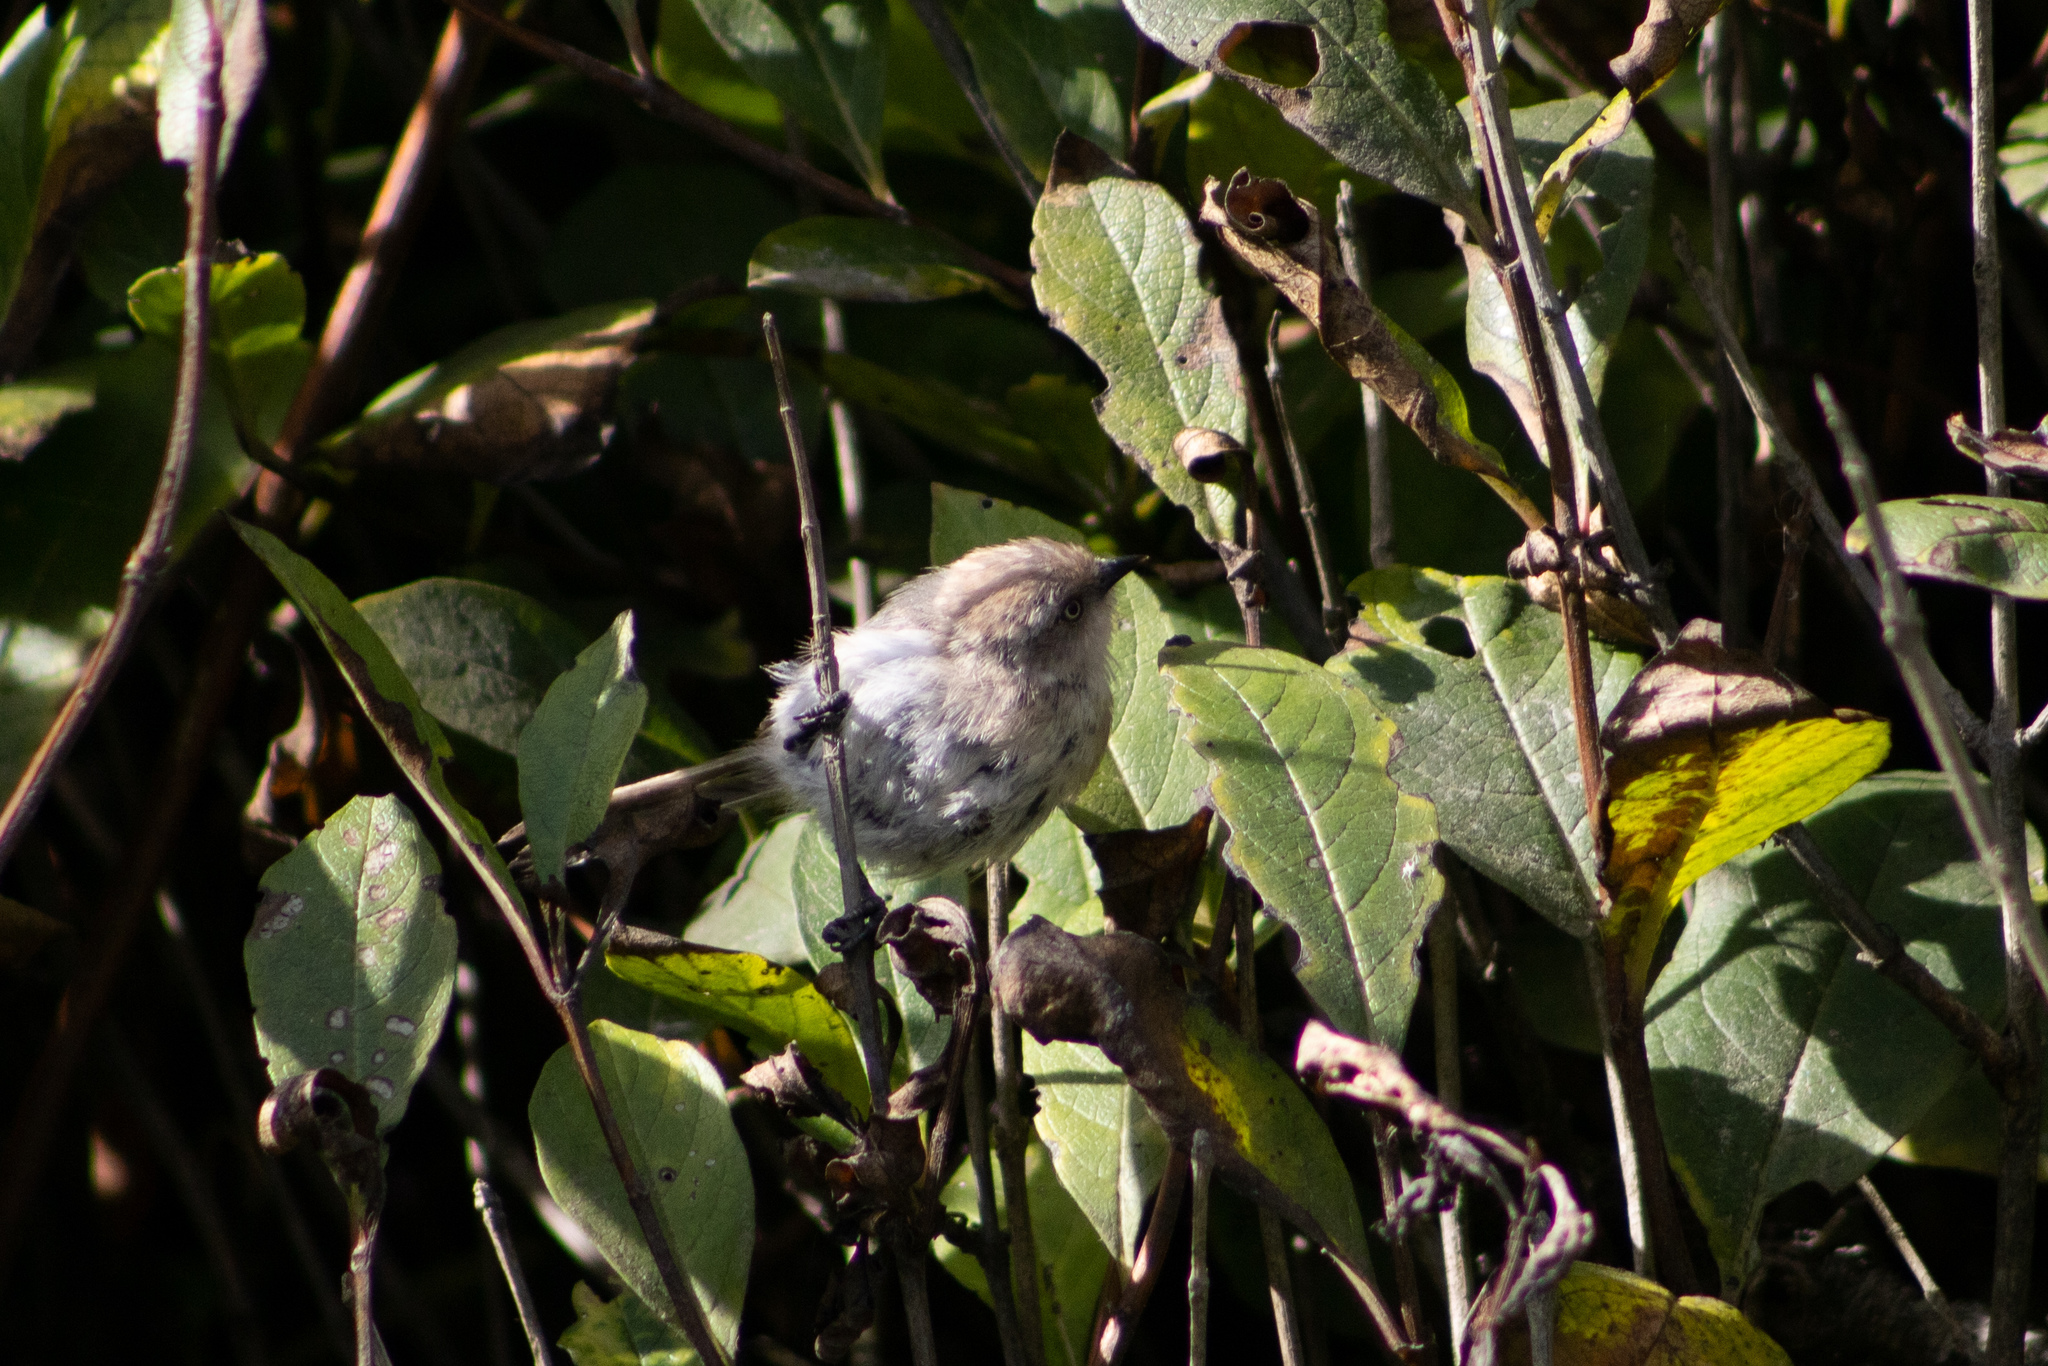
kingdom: Animalia
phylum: Chordata
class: Aves
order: Passeriformes
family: Aegithalidae
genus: Psaltriparus
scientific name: Psaltriparus minimus
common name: American bushtit
